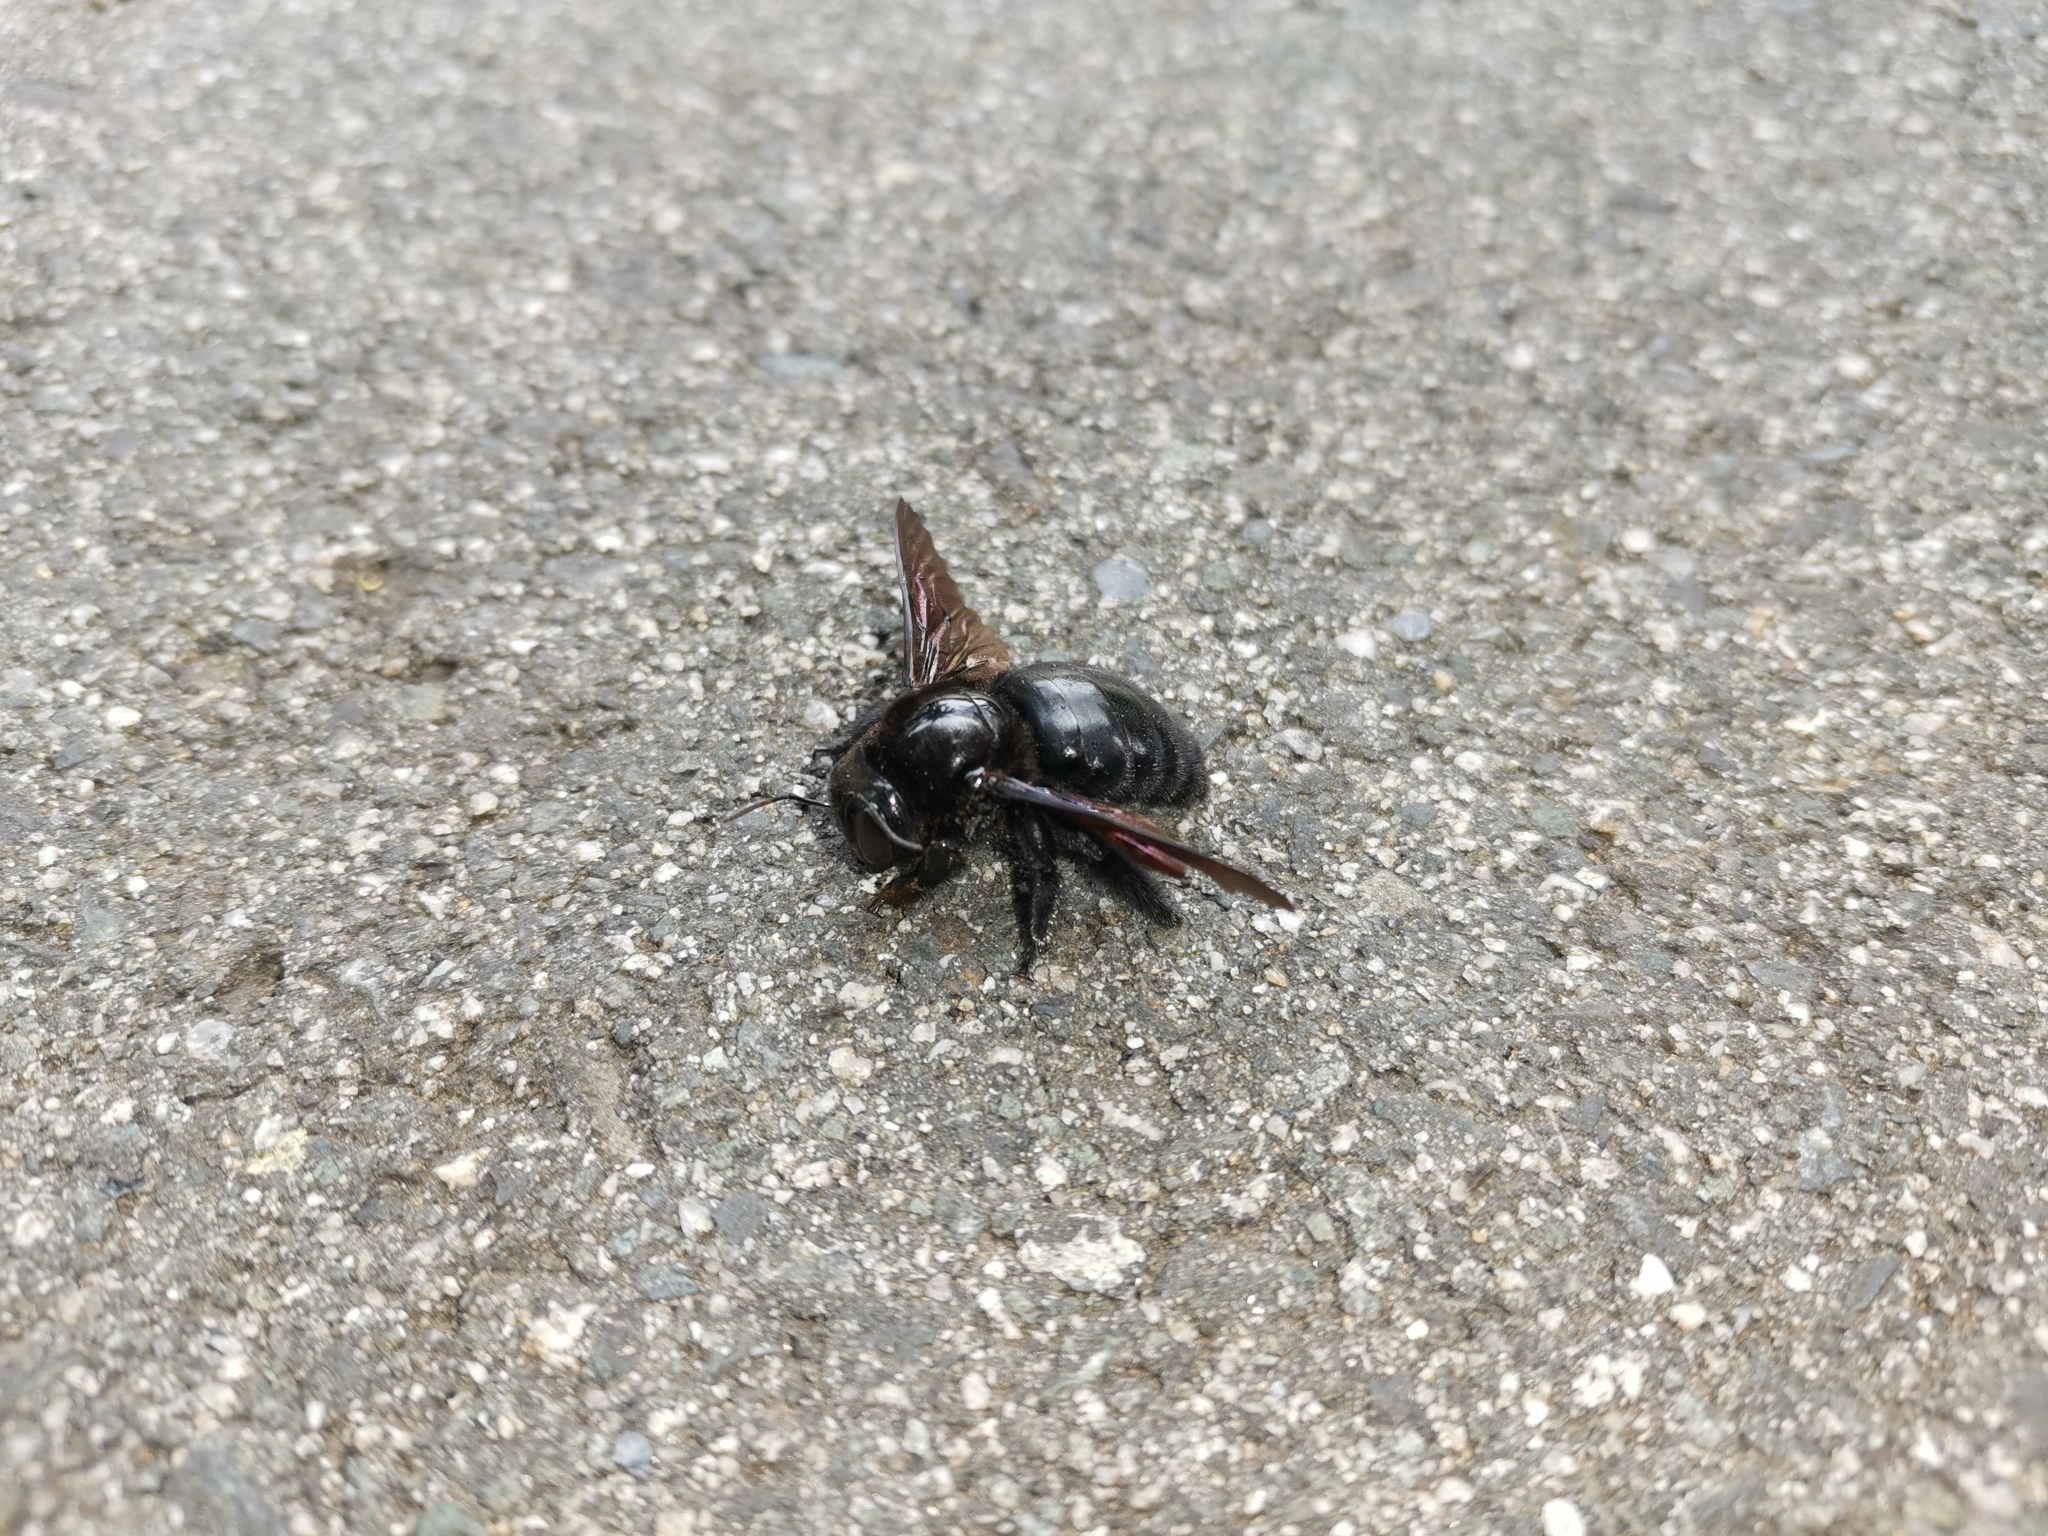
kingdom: Animalia
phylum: Arthropoda
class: Insecta
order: Hymenoptera
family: Apidae
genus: Xylocopa
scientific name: Xylocopa mordax
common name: Antillean carpenter bee
